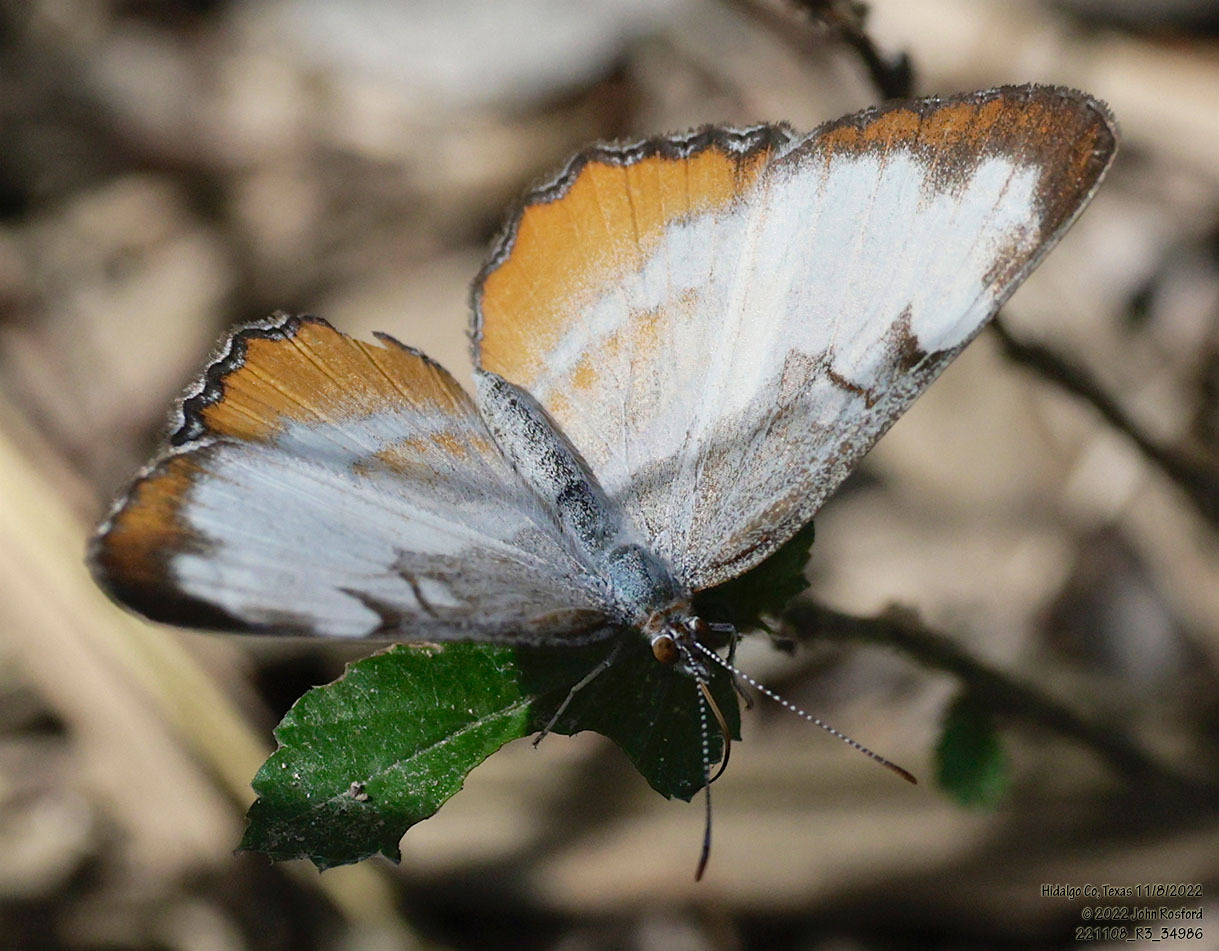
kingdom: Animalia
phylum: Arthropoda
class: Insecta
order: Lepidoptera
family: Nymphalidae
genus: Mestra
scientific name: Mestra amymone
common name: Common mestra
